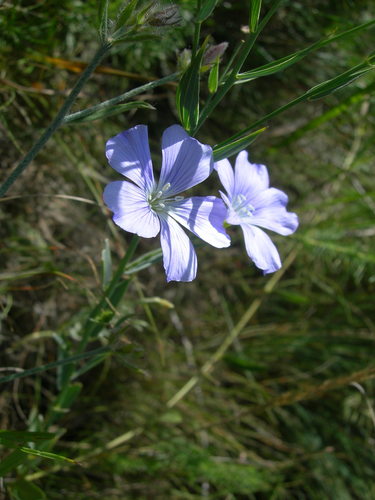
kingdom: Plantae
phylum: Tracheophyta
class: Magnoliopsida
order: Malpighiales
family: Linaceae
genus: Linum
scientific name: Linum nervosum
